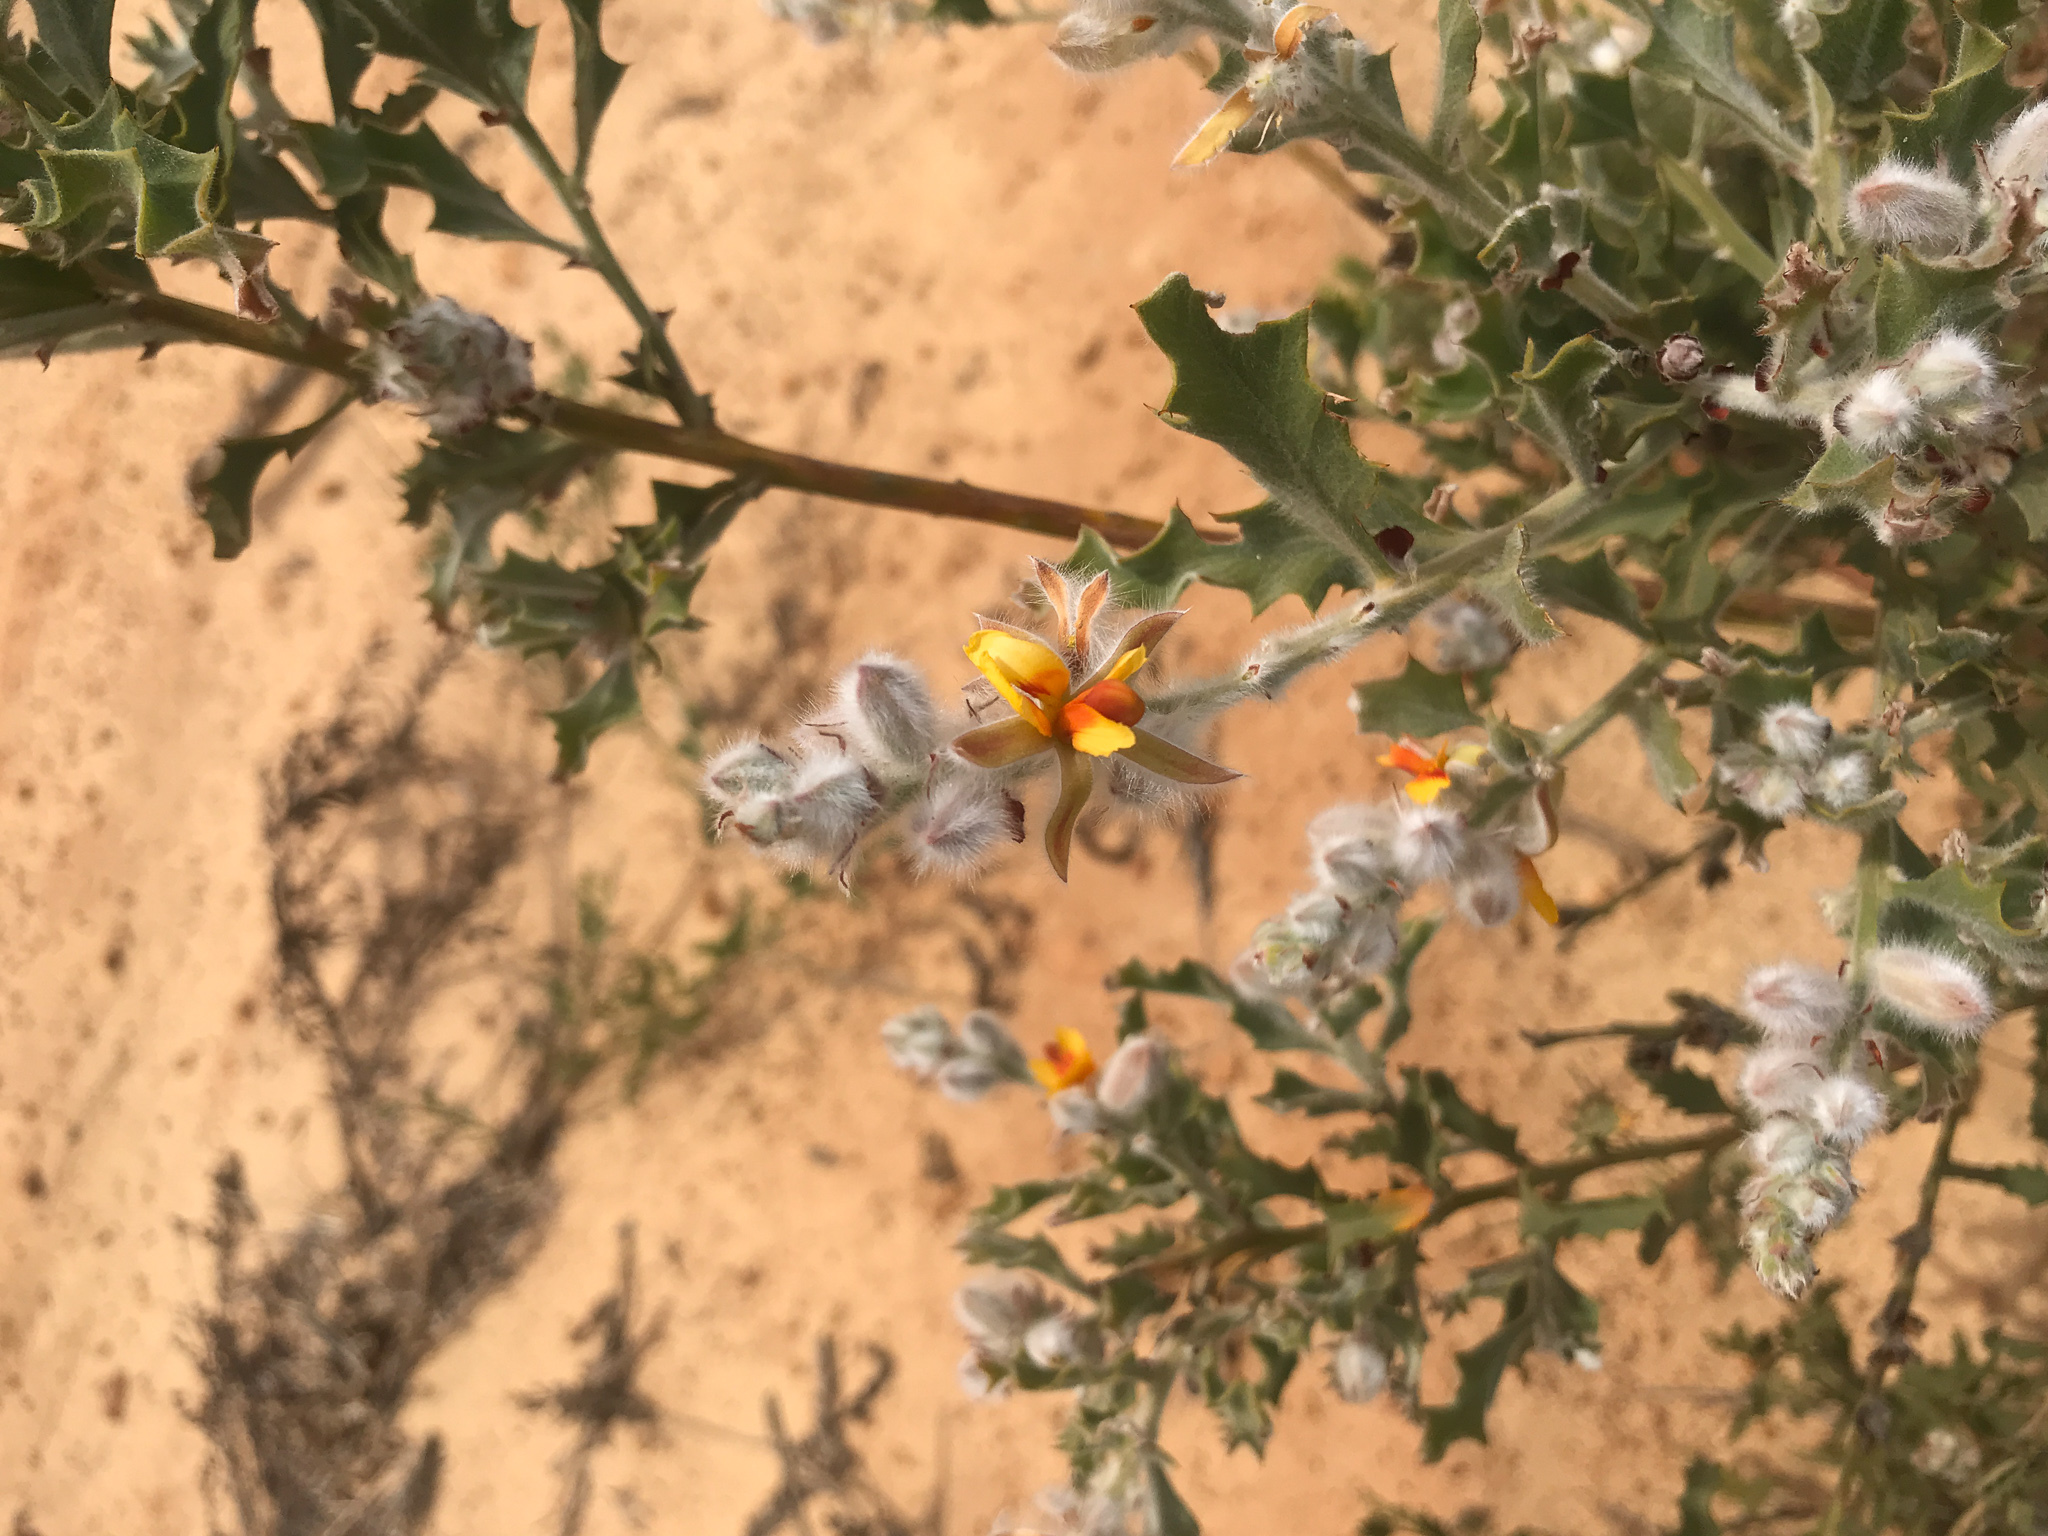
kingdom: Plantae
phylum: Tracheophyta
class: Magnoliopsida
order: Fabales
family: Fabaceae
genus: Jacksonia
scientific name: Jacksonia floribunda
